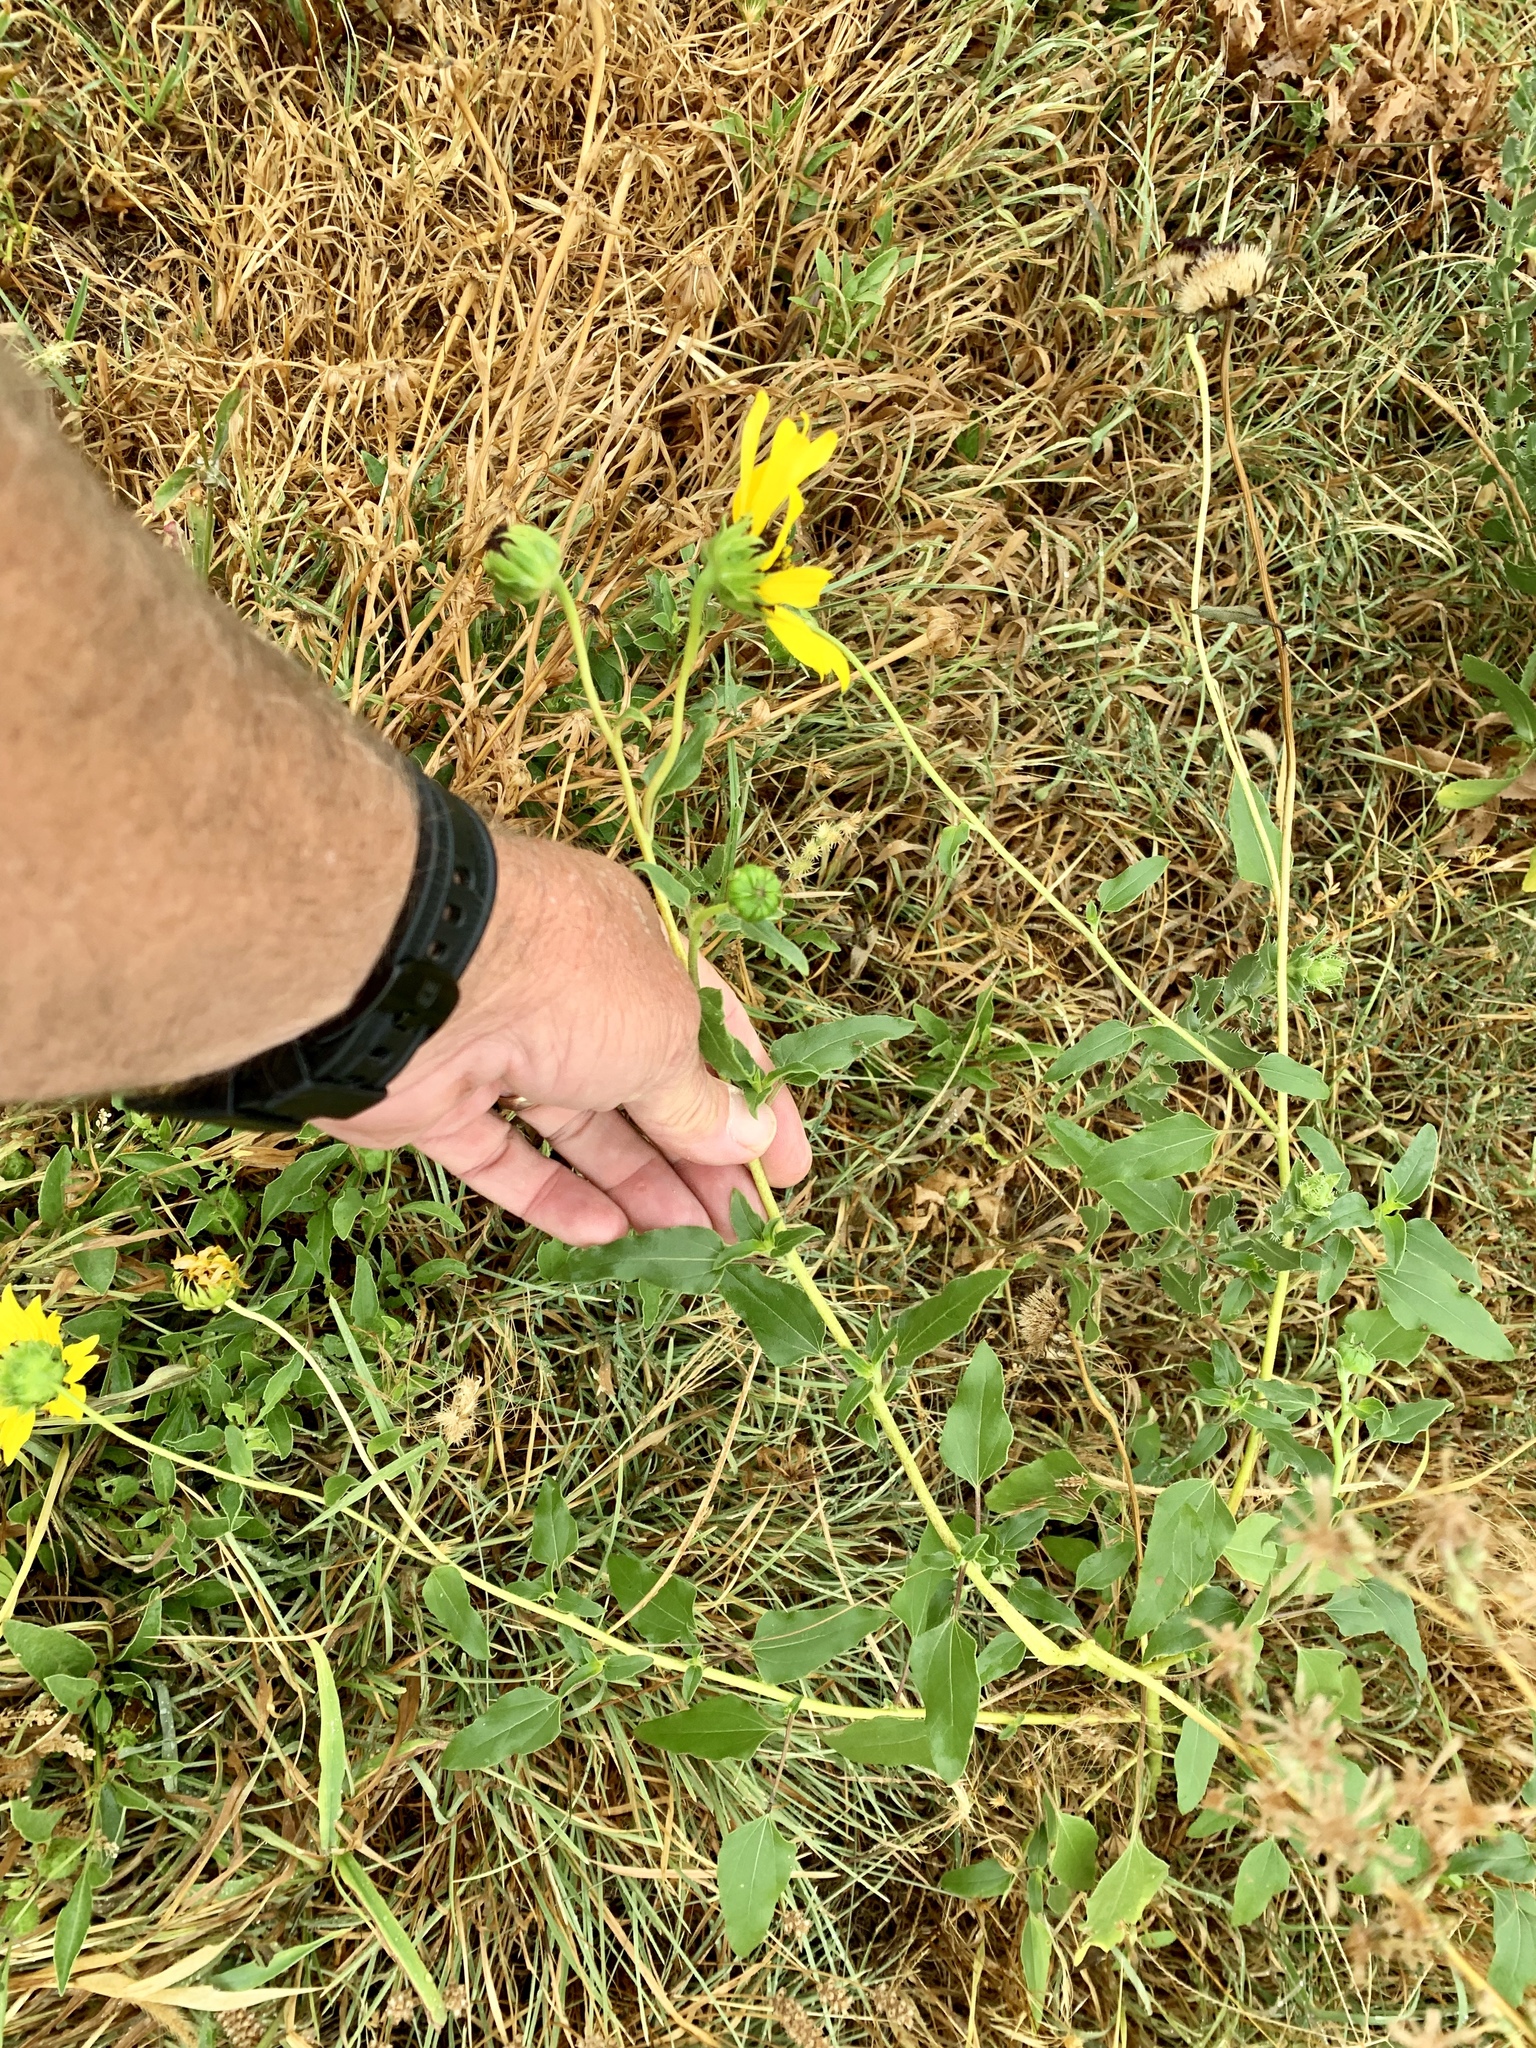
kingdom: Plantae
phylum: Tracheophyta
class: Magnoliopsida
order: Asterales
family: Asteraceae
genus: Helianthus
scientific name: Helianthus petiolaris
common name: Lesser sunflower
